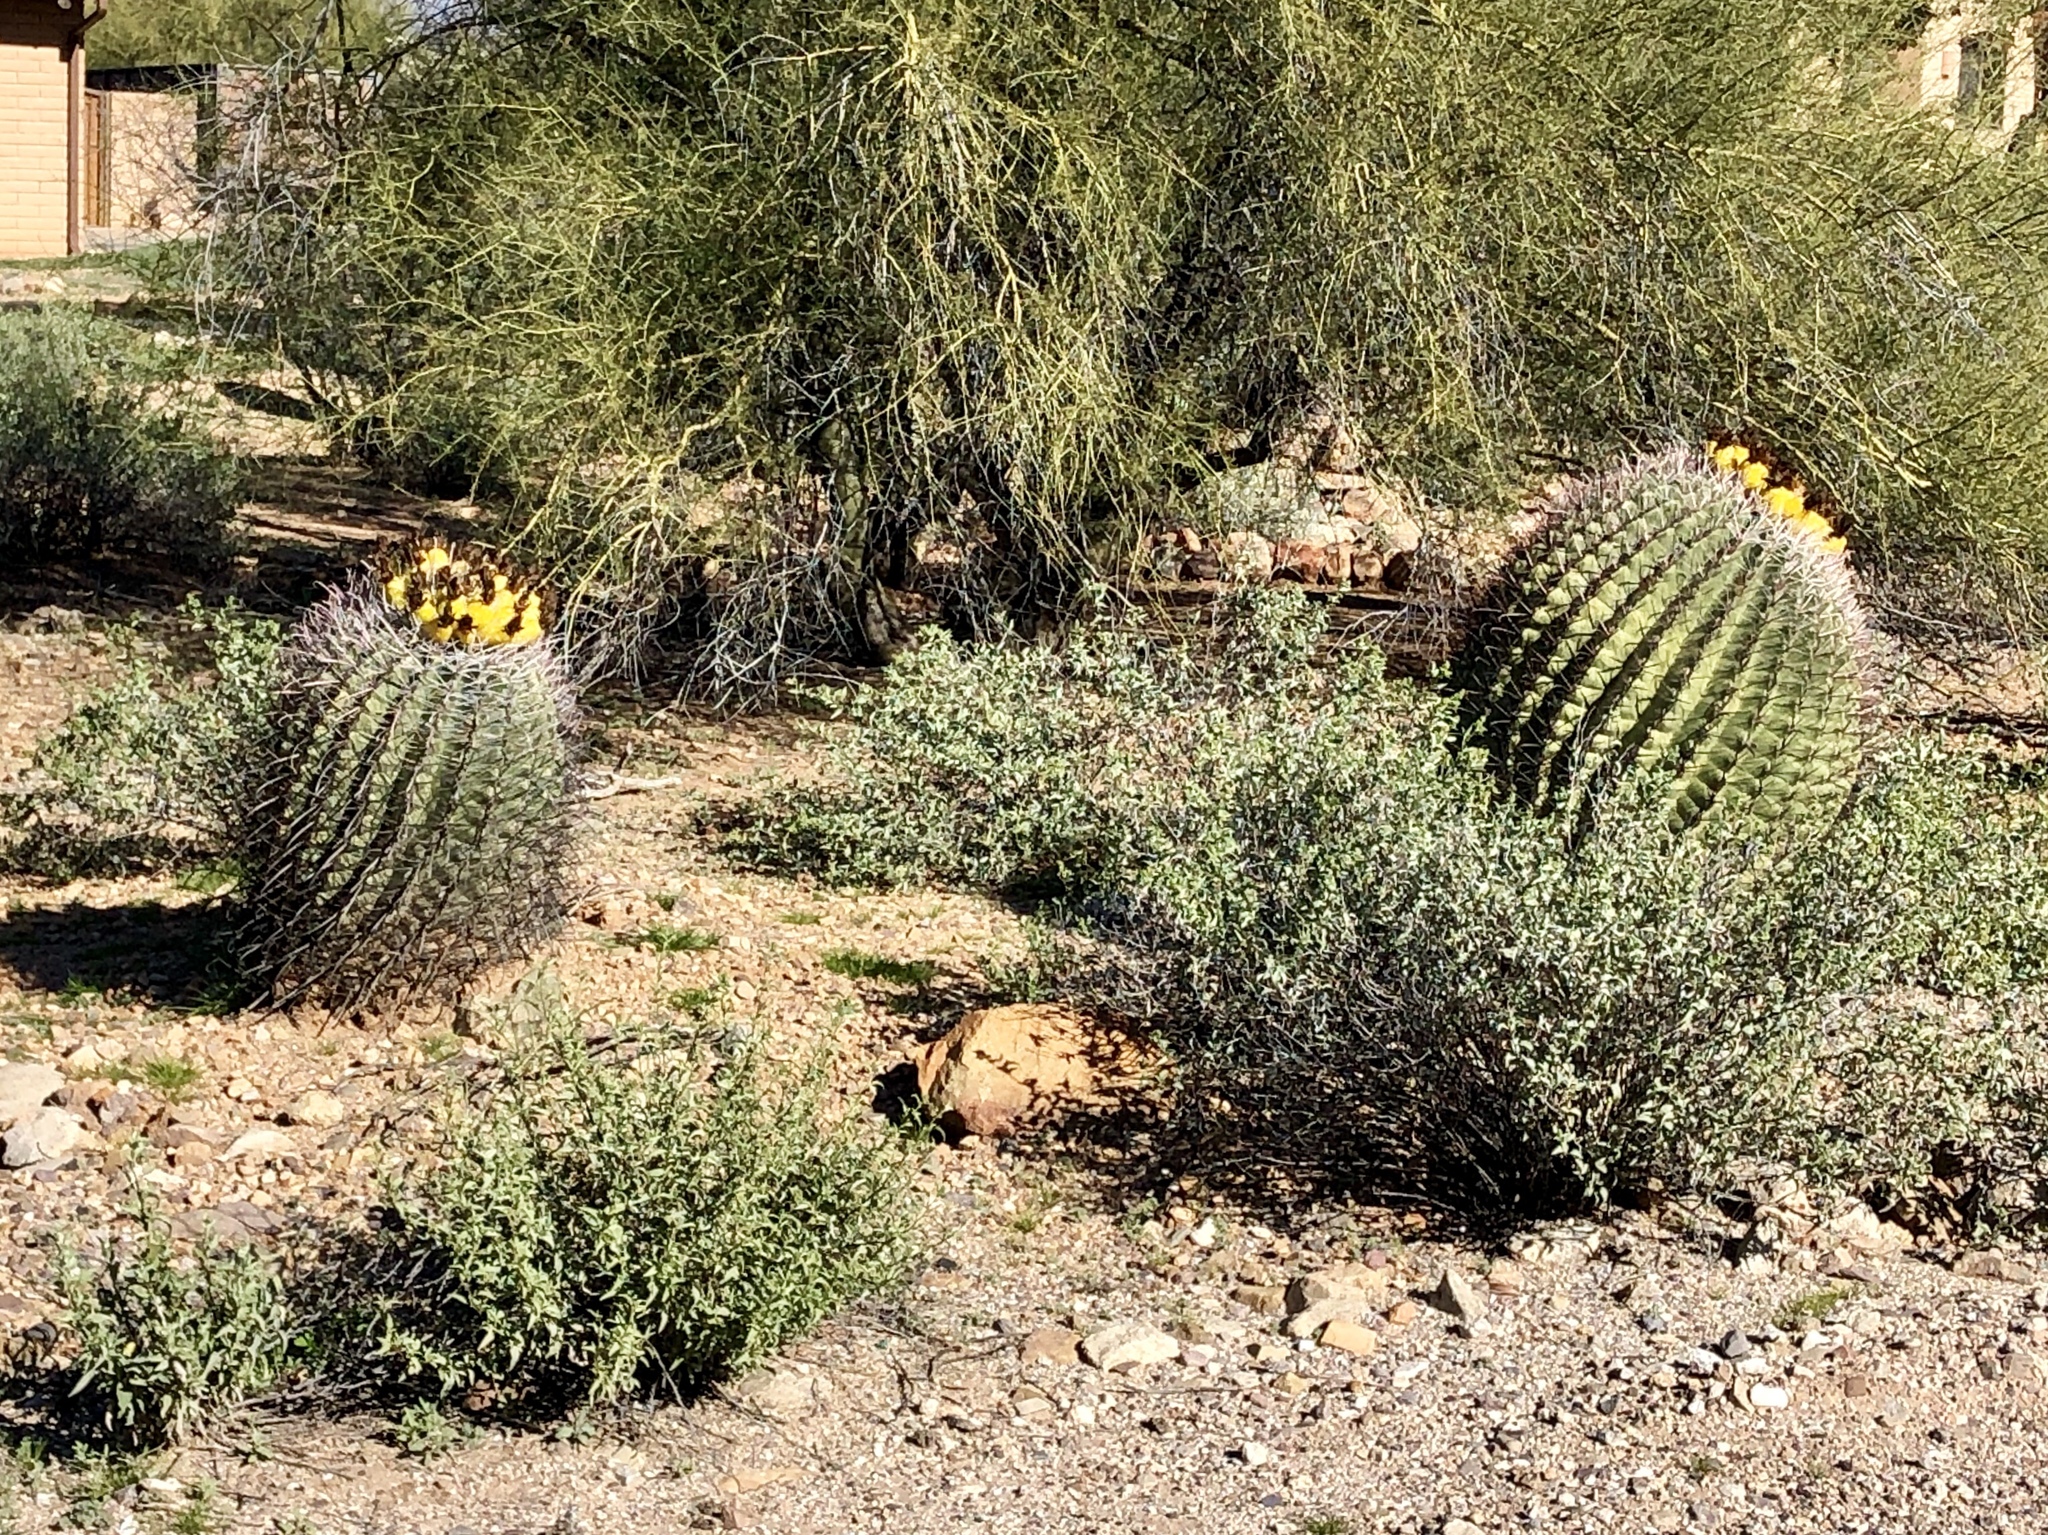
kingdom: Plantae
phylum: Tracheophyta
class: Magnoliopsida
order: Caryophyllales
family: Cactaceae
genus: Ferocactus
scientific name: Ferocactus wislizeni
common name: Candy barrel cactus
